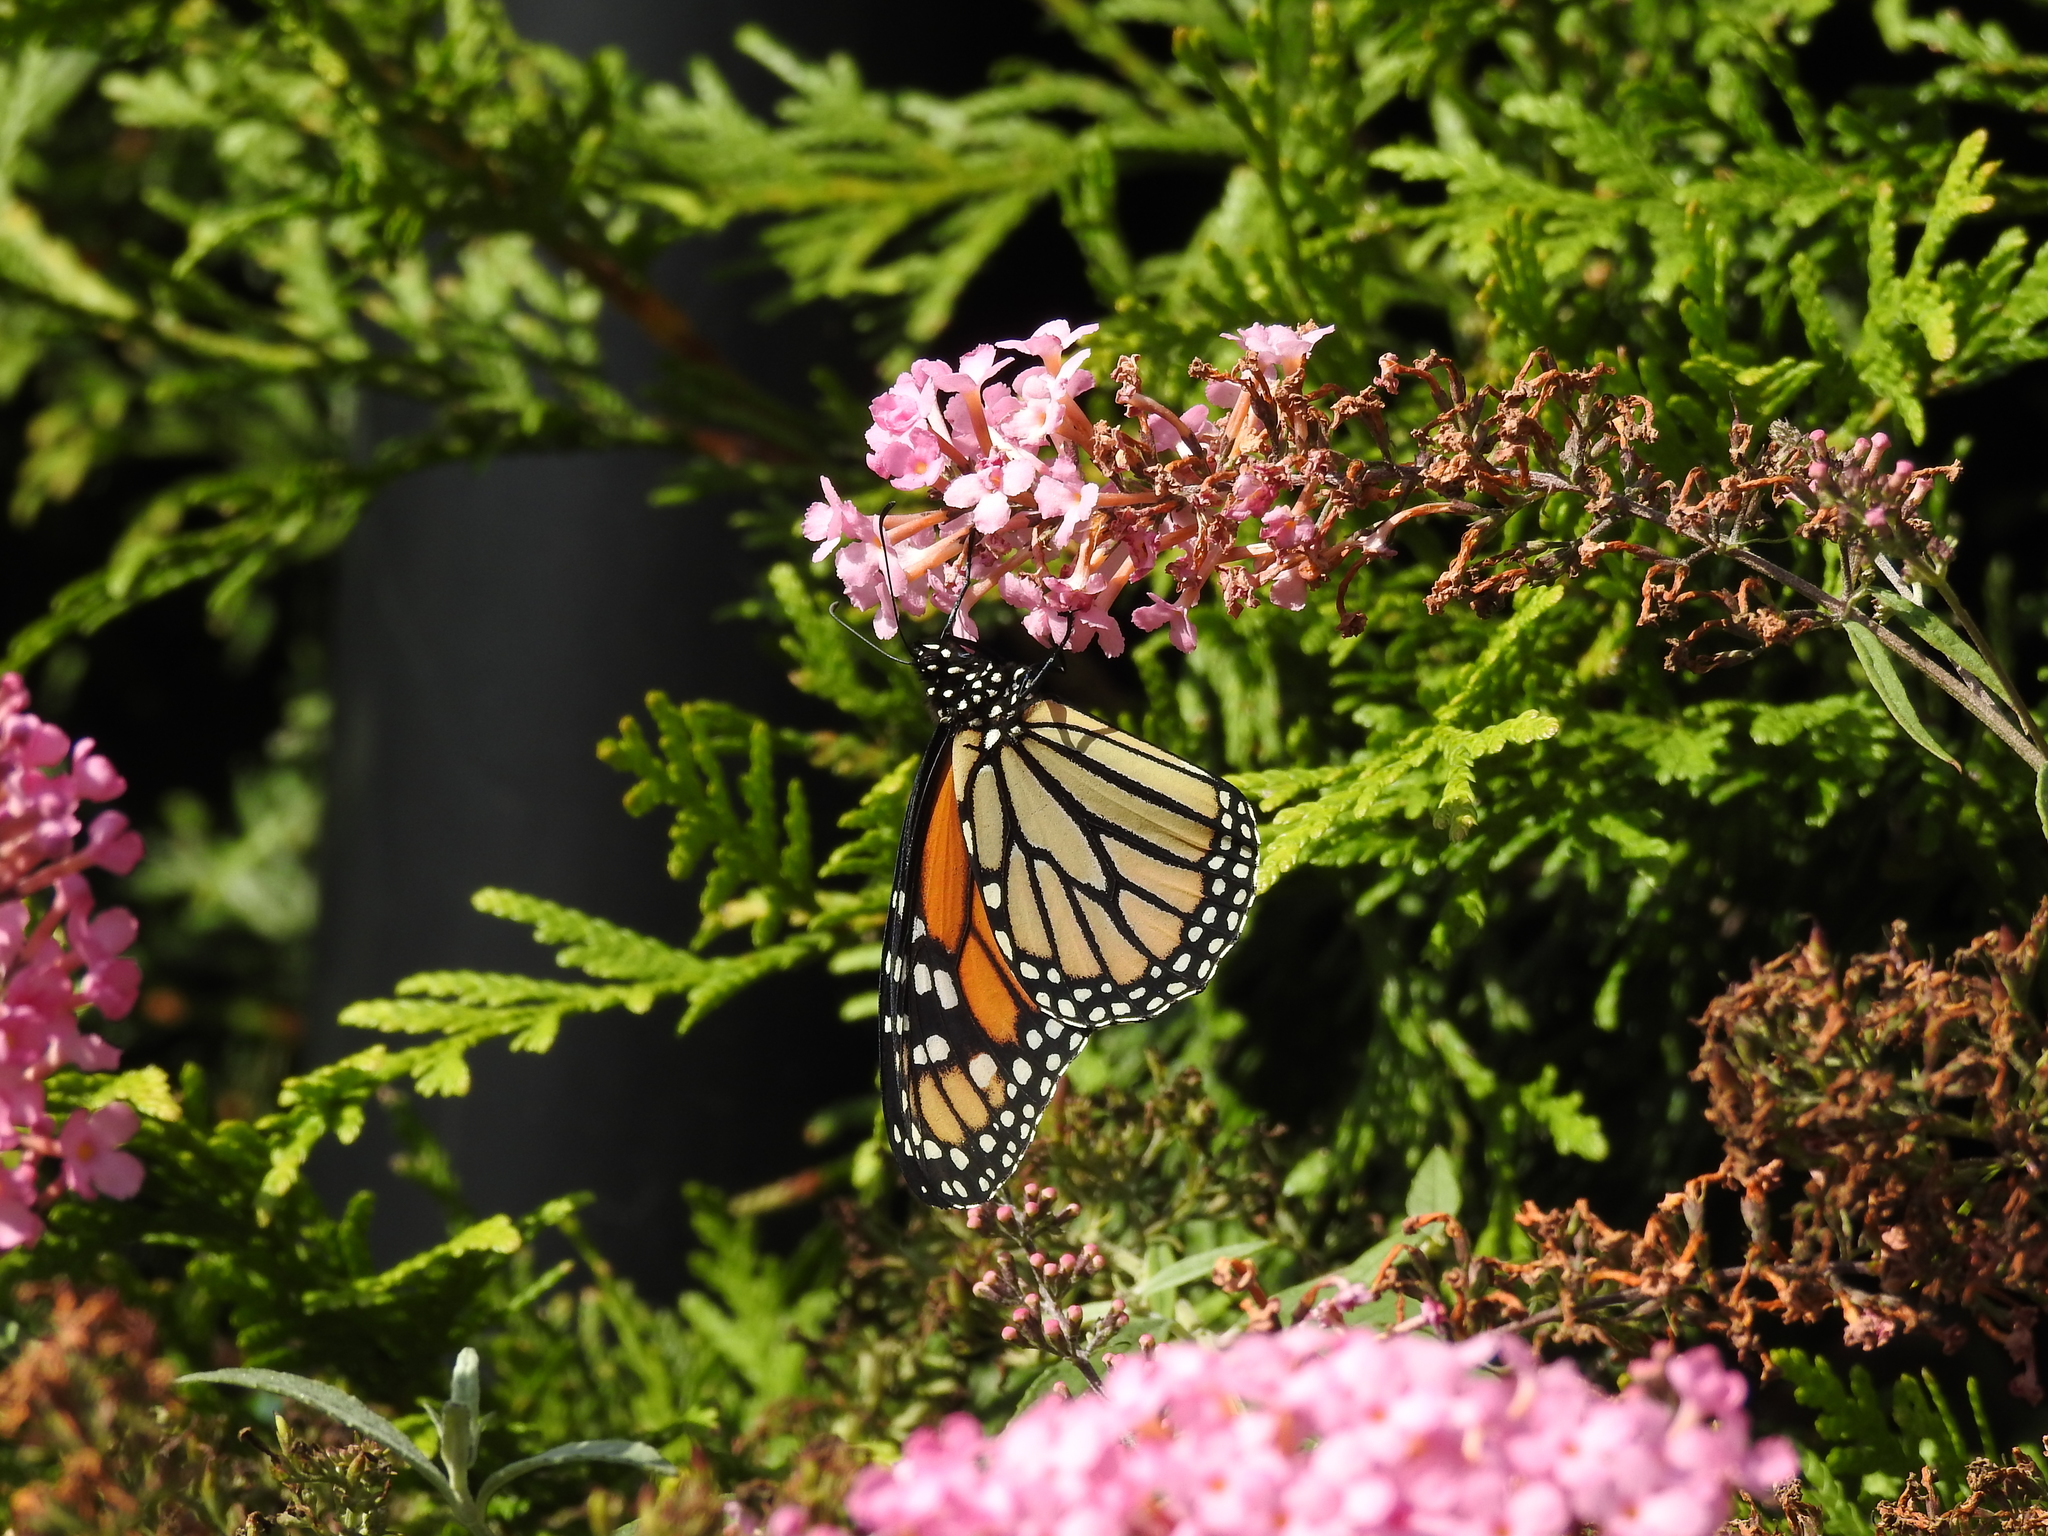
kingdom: Animalia
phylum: Arthropoda
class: Insecta
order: Lepidoptera
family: Nymphalidae
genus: Danaus
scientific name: Danaus plexippus
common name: Monarch
